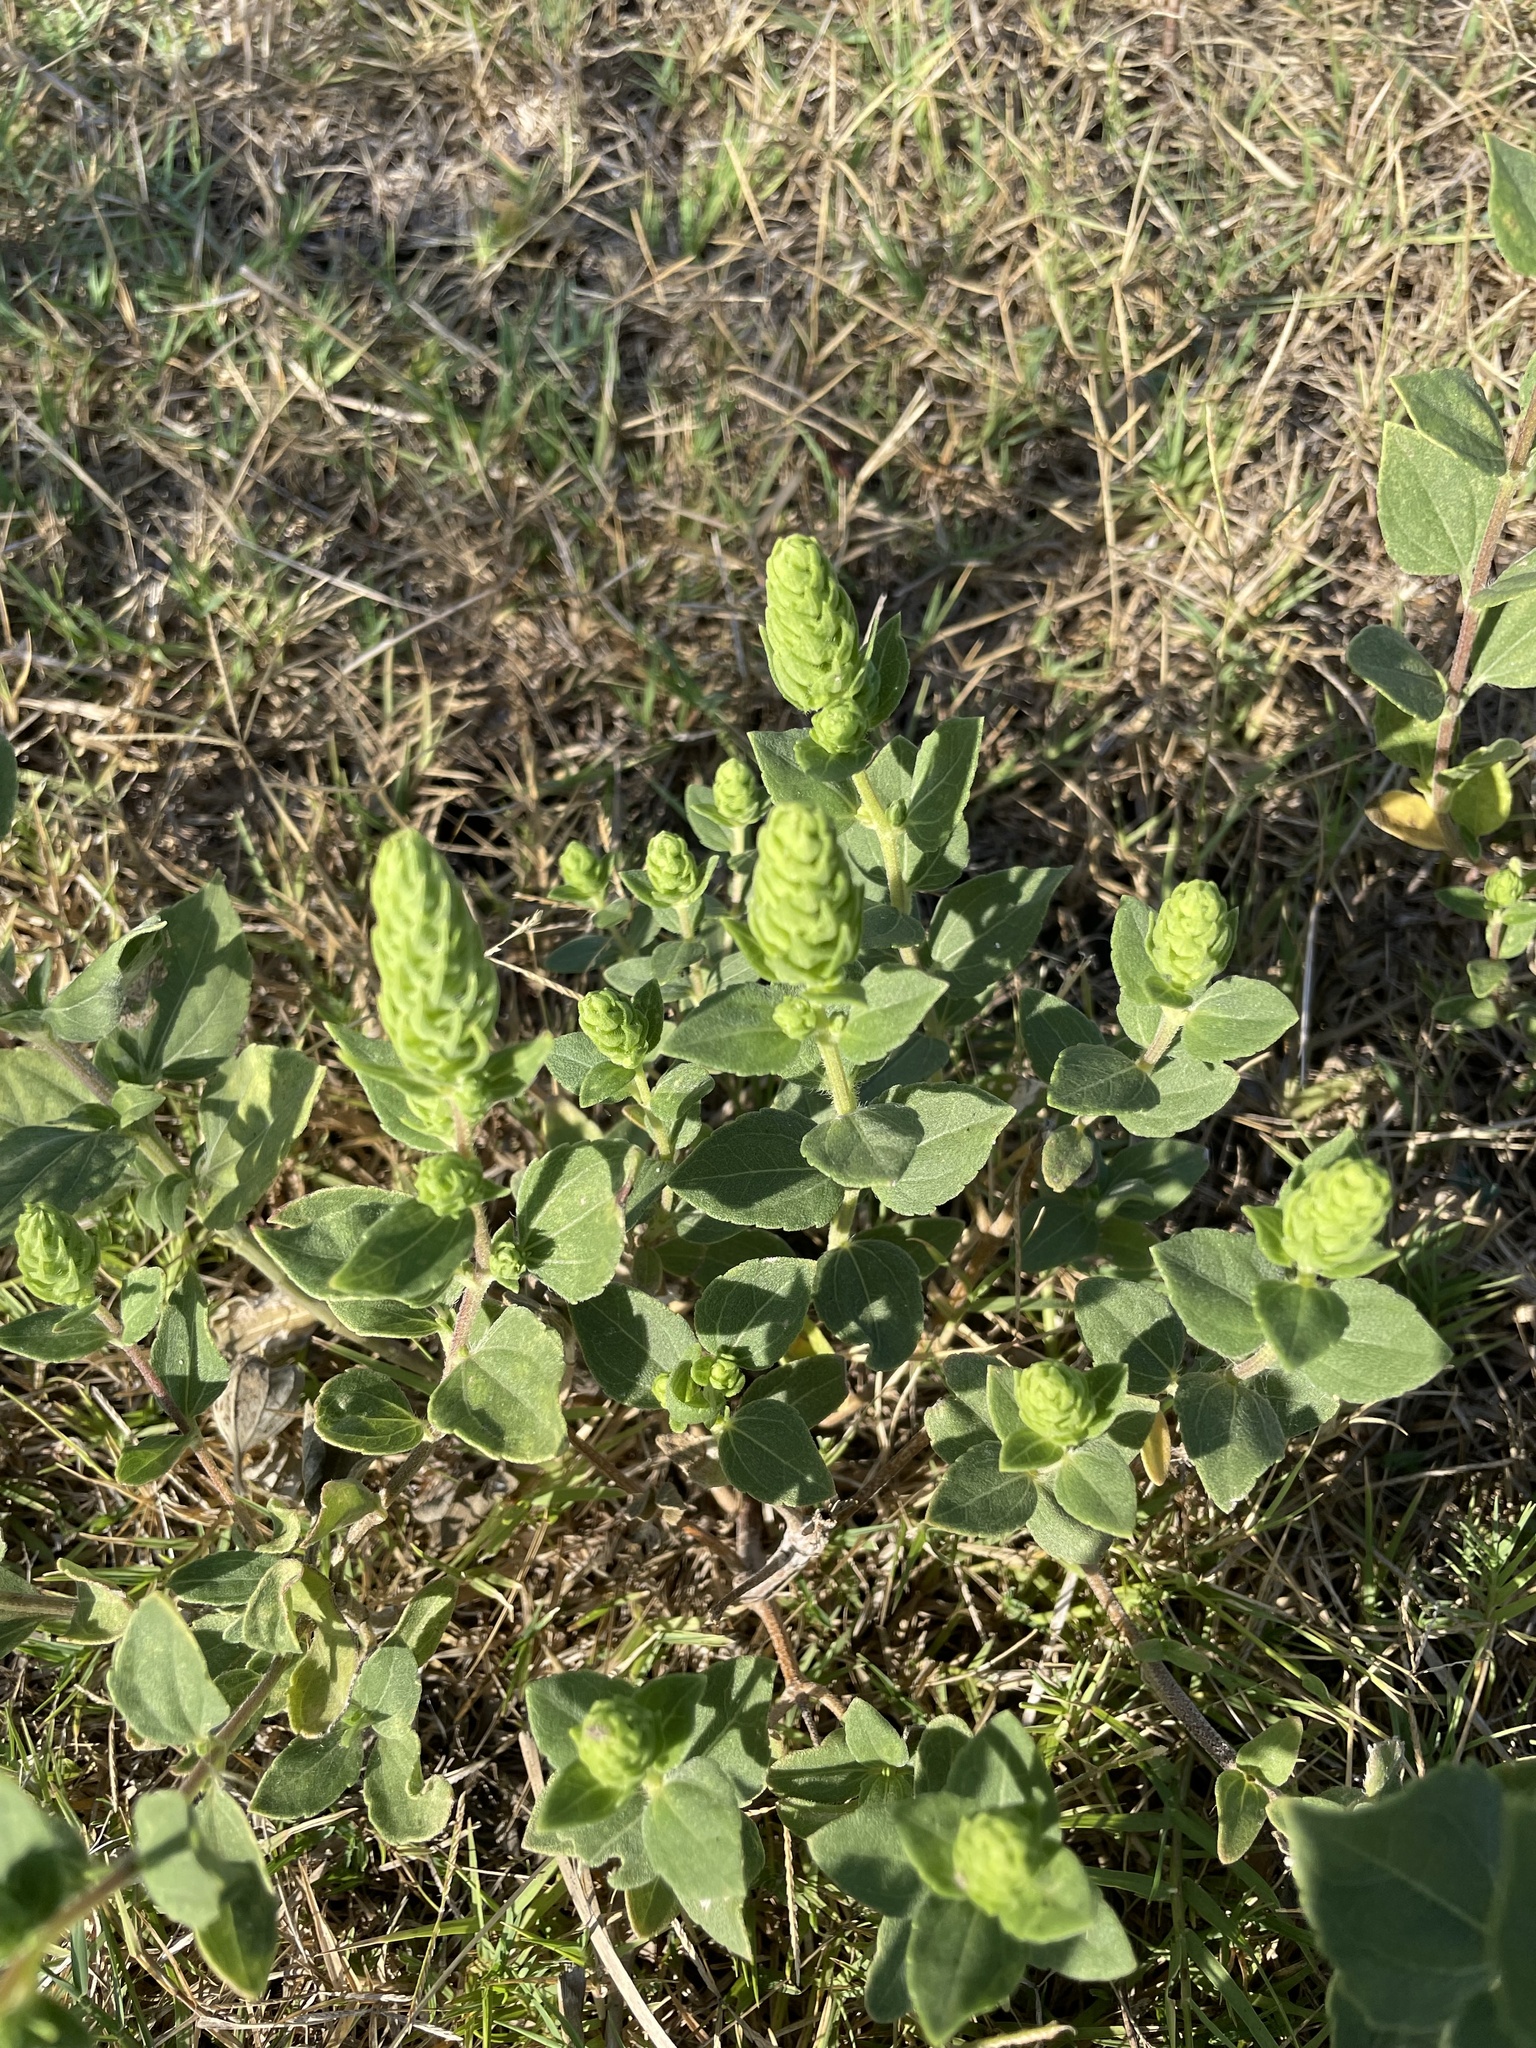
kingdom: Plantae
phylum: Tracheophyta
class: Magnoliopsida
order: Asterales
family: Asteraceae
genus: Iva
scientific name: Iva annua
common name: Marsh-elder
